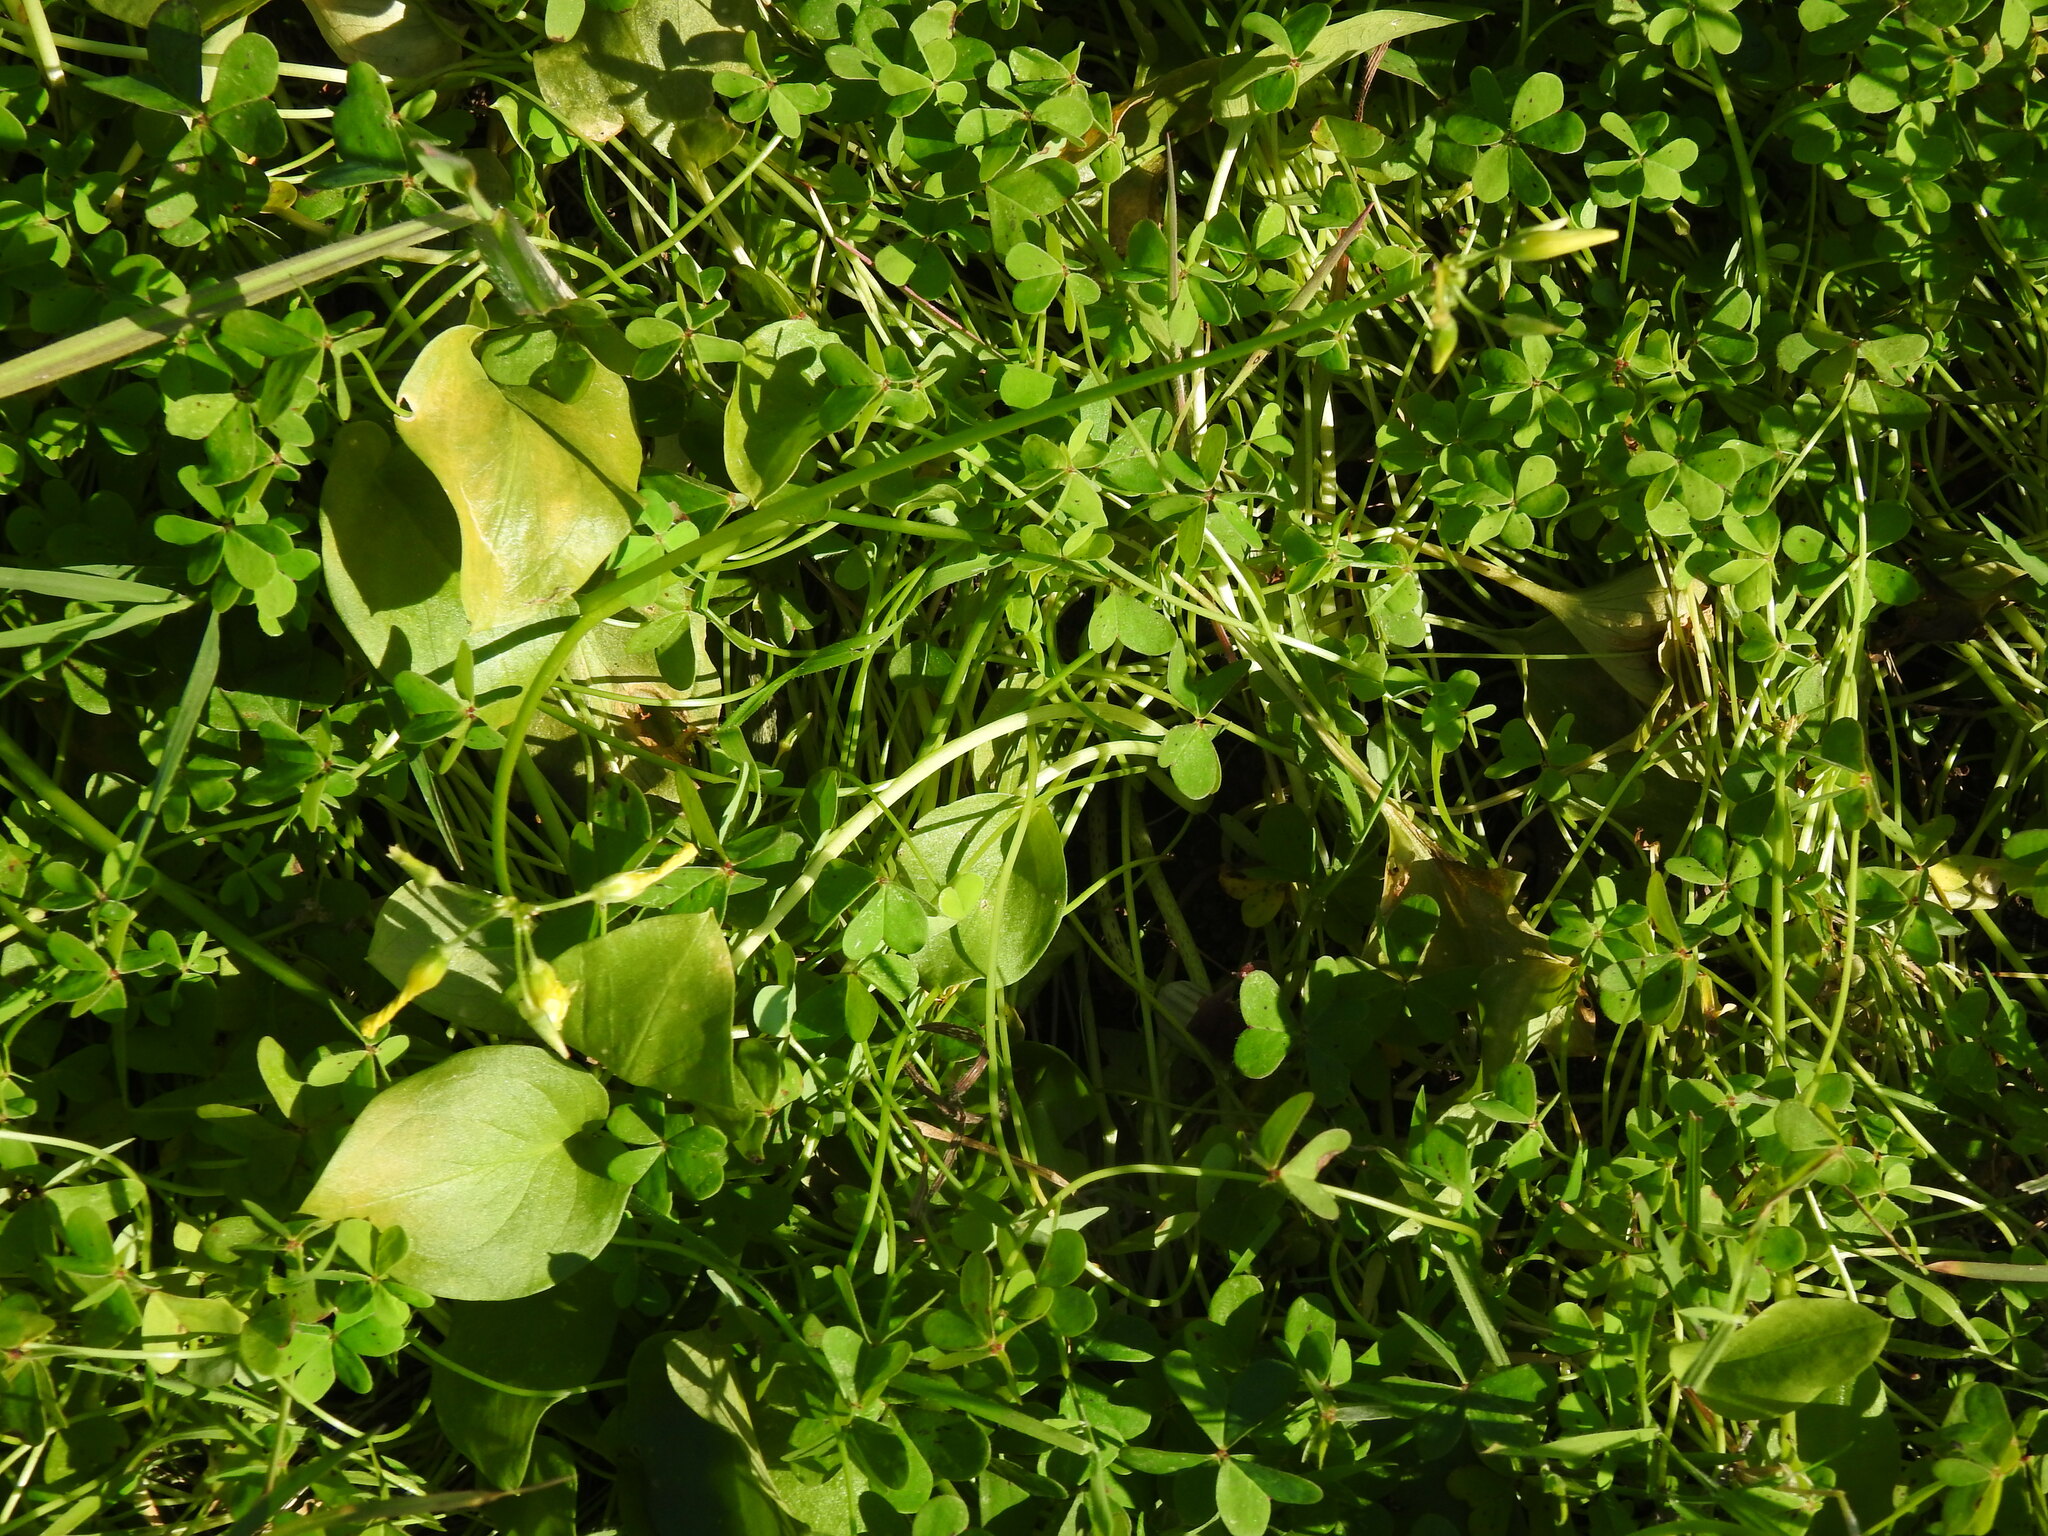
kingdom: Plantae
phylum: Tracheophyta
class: Liliopsida
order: Alismatales
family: Araceae
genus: Arisarum
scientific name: Arisarum simorrhinum
